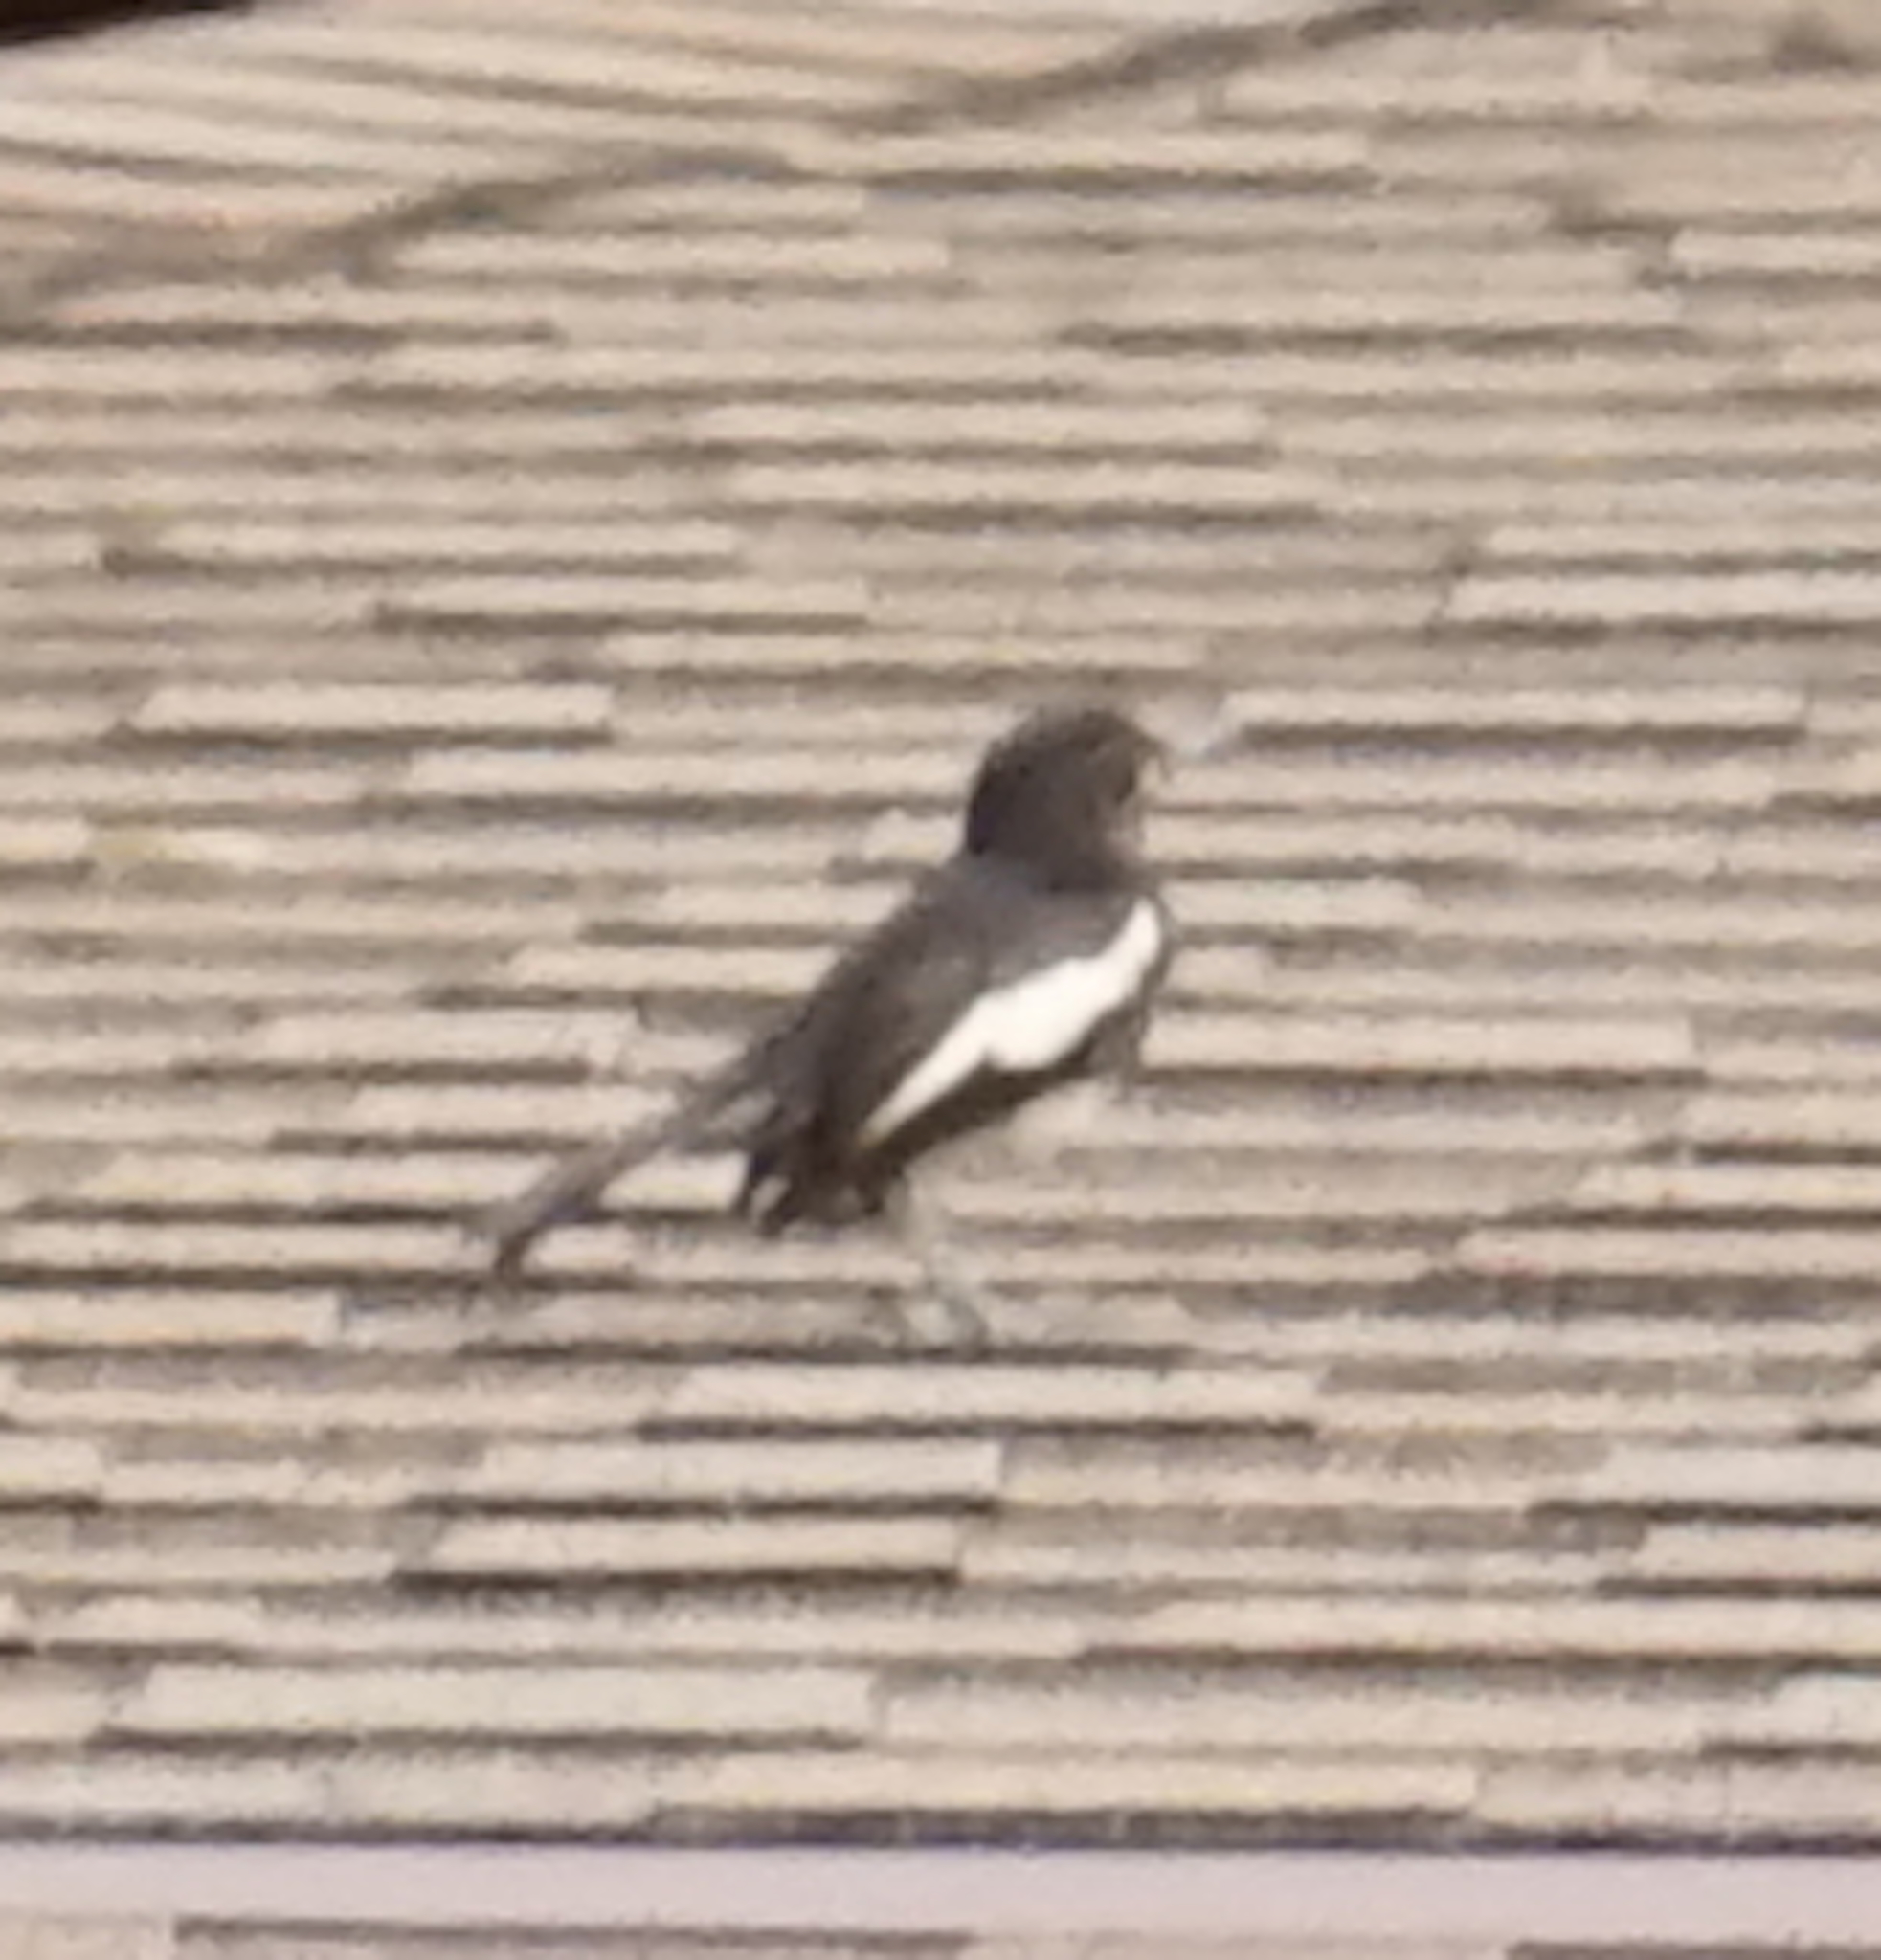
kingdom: Animalia
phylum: Chordata
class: Aves
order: Passeriformes
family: Muscicapidae
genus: Copsychus
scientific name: Copsychus saularis
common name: Oriental magpie-robin
